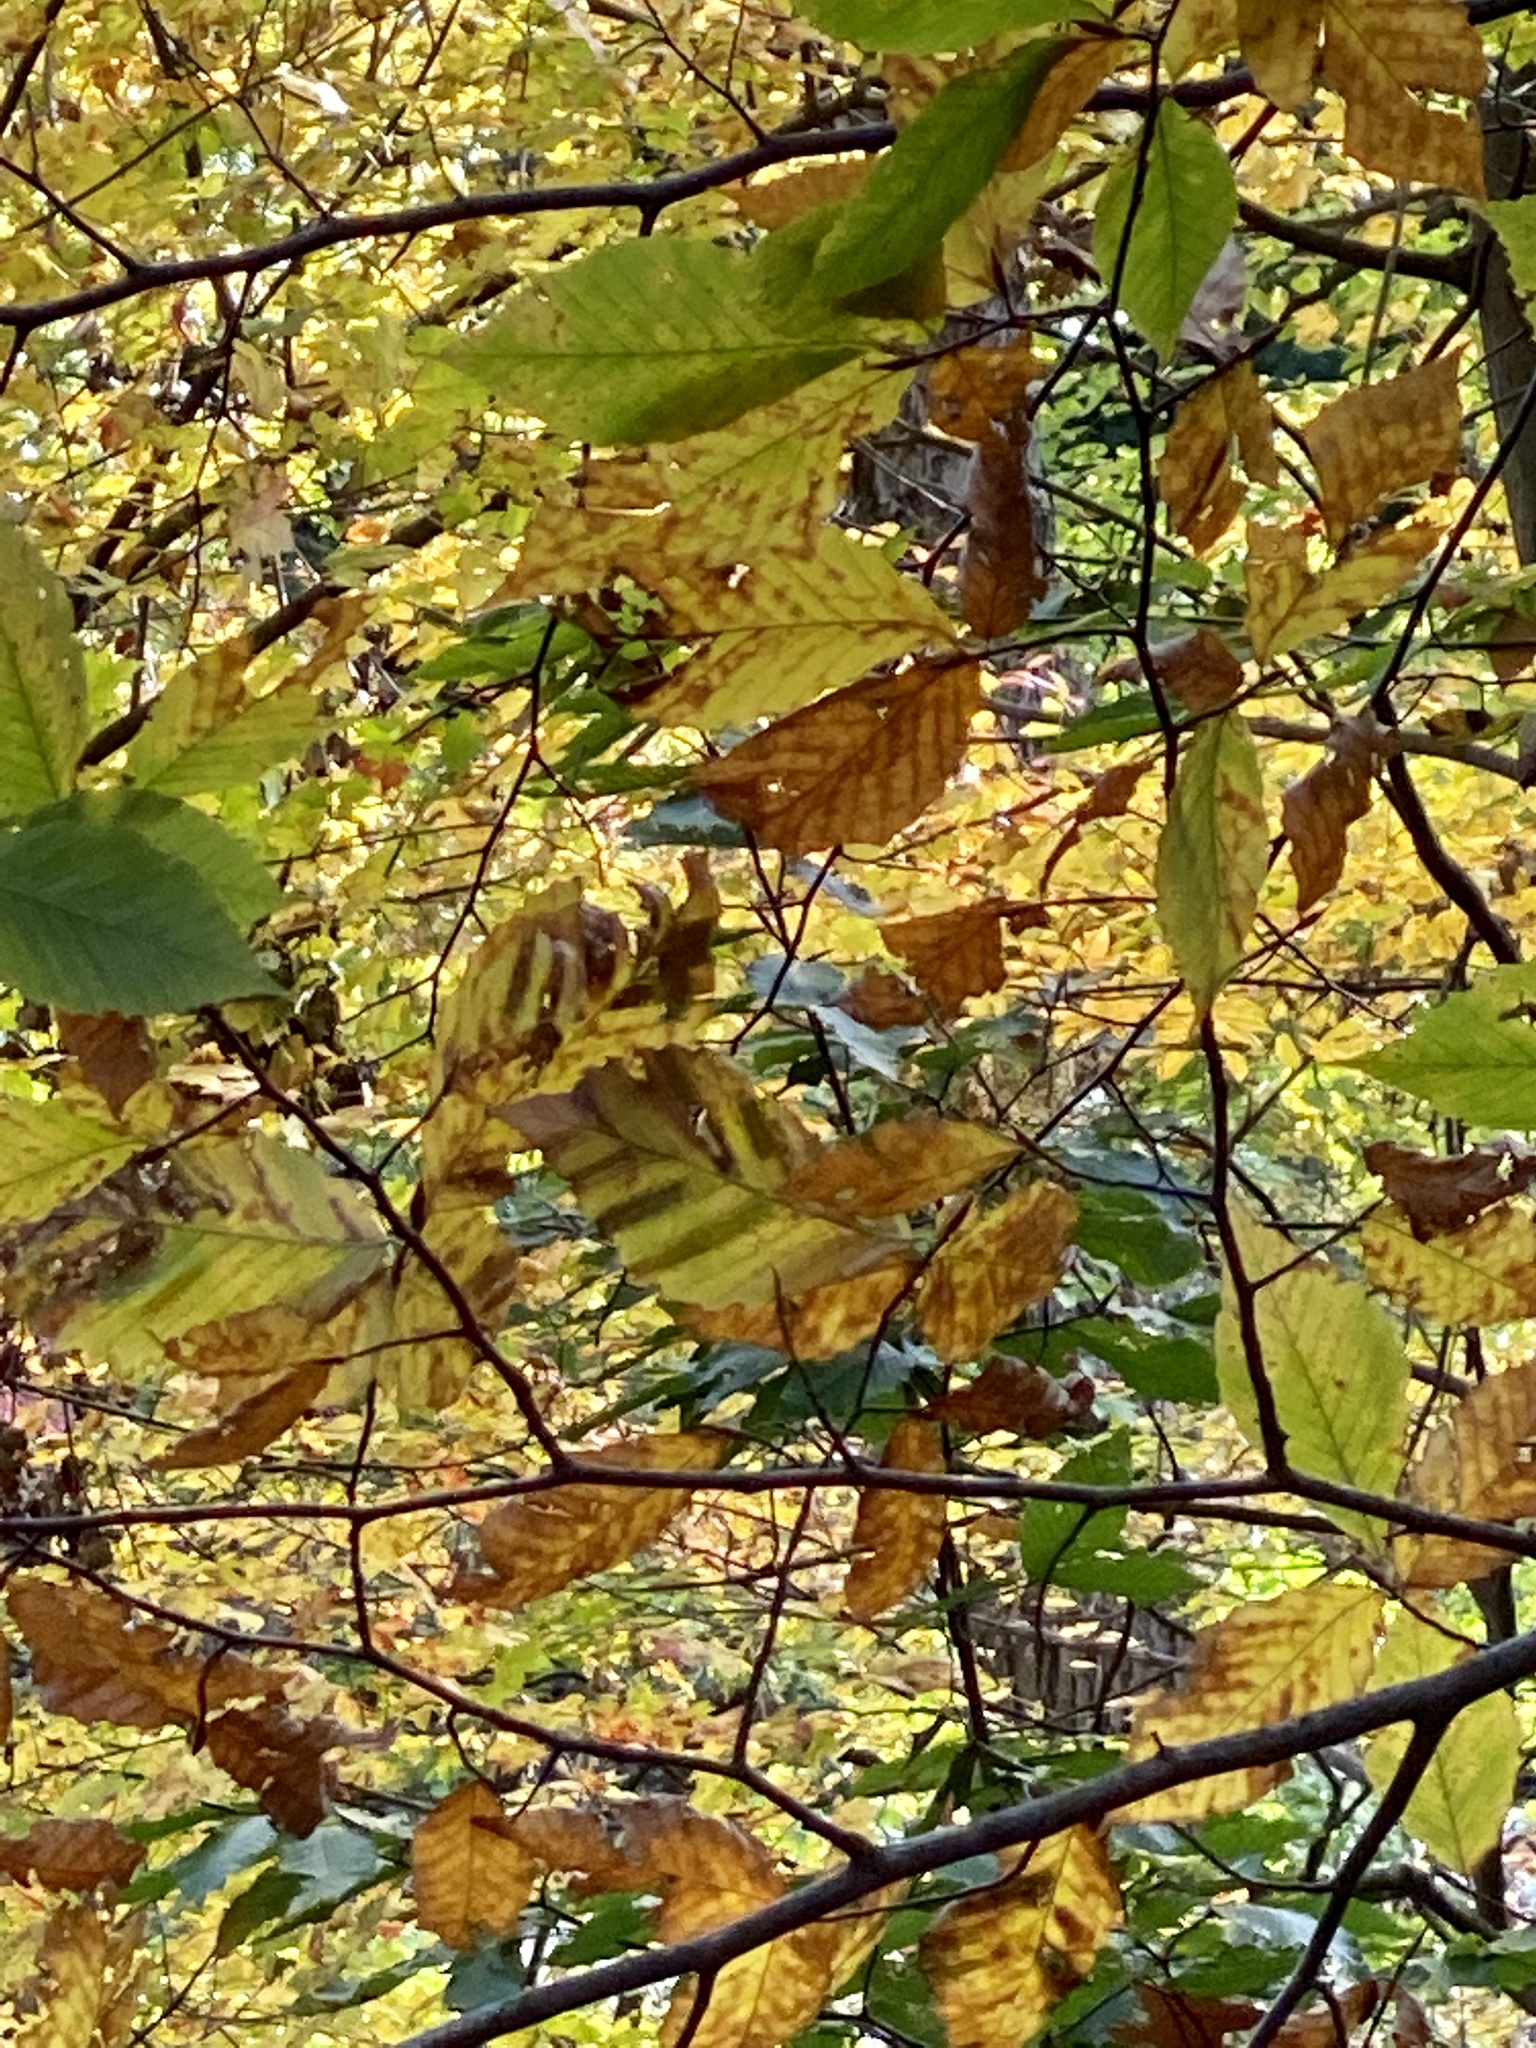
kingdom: Animalia
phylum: Nematoda
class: Chromadorea
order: Rhabditida
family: Anguinidae
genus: Litylenchus
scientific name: Litylenchus crenatae
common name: Beech leaf disease
